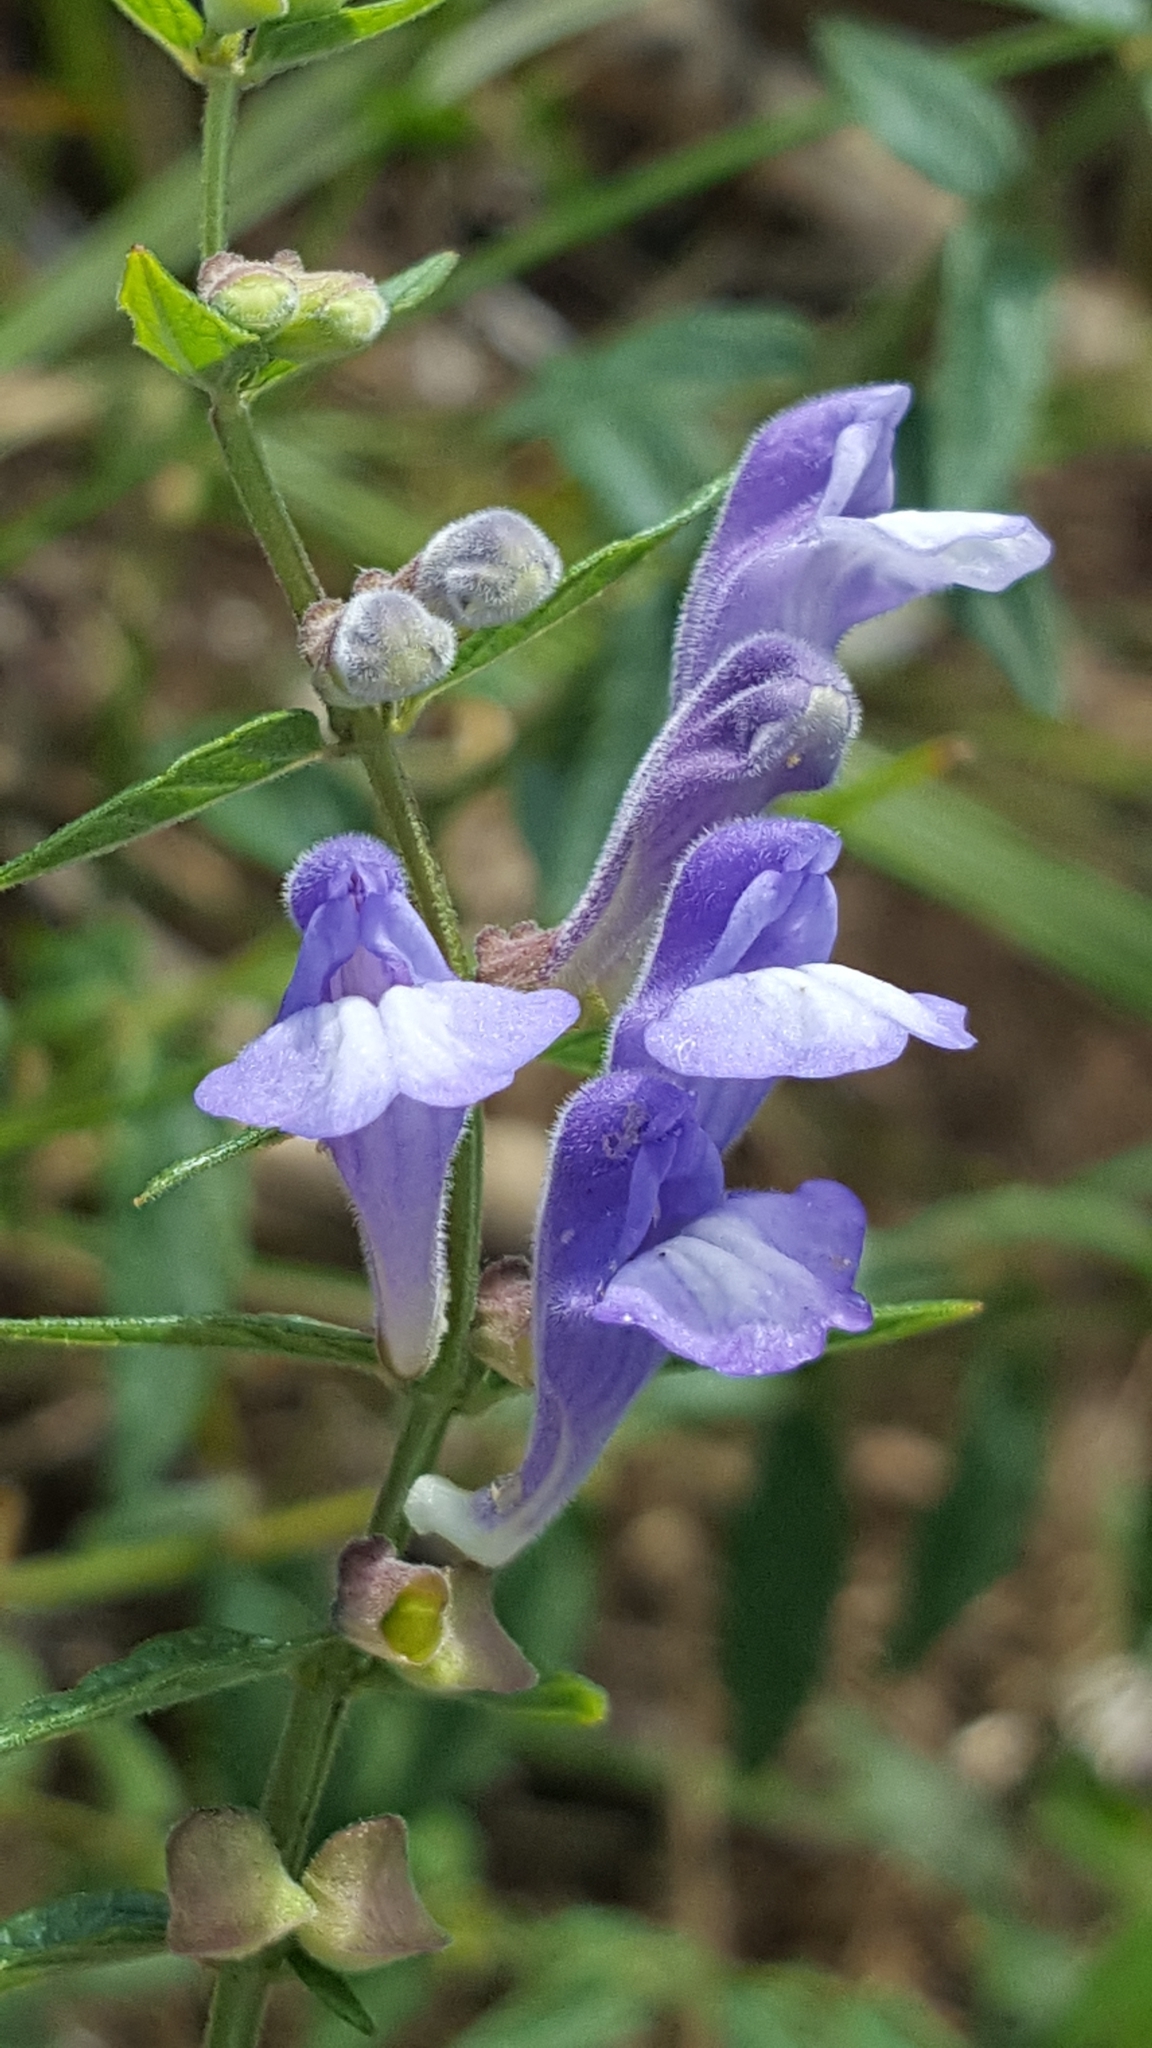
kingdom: Plantae
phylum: Tracheophyta
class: Magnoliopsida
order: Lamiales
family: Lamiaceae
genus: Scutellaria
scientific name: Scutellaria galericulata
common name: Skullcap
